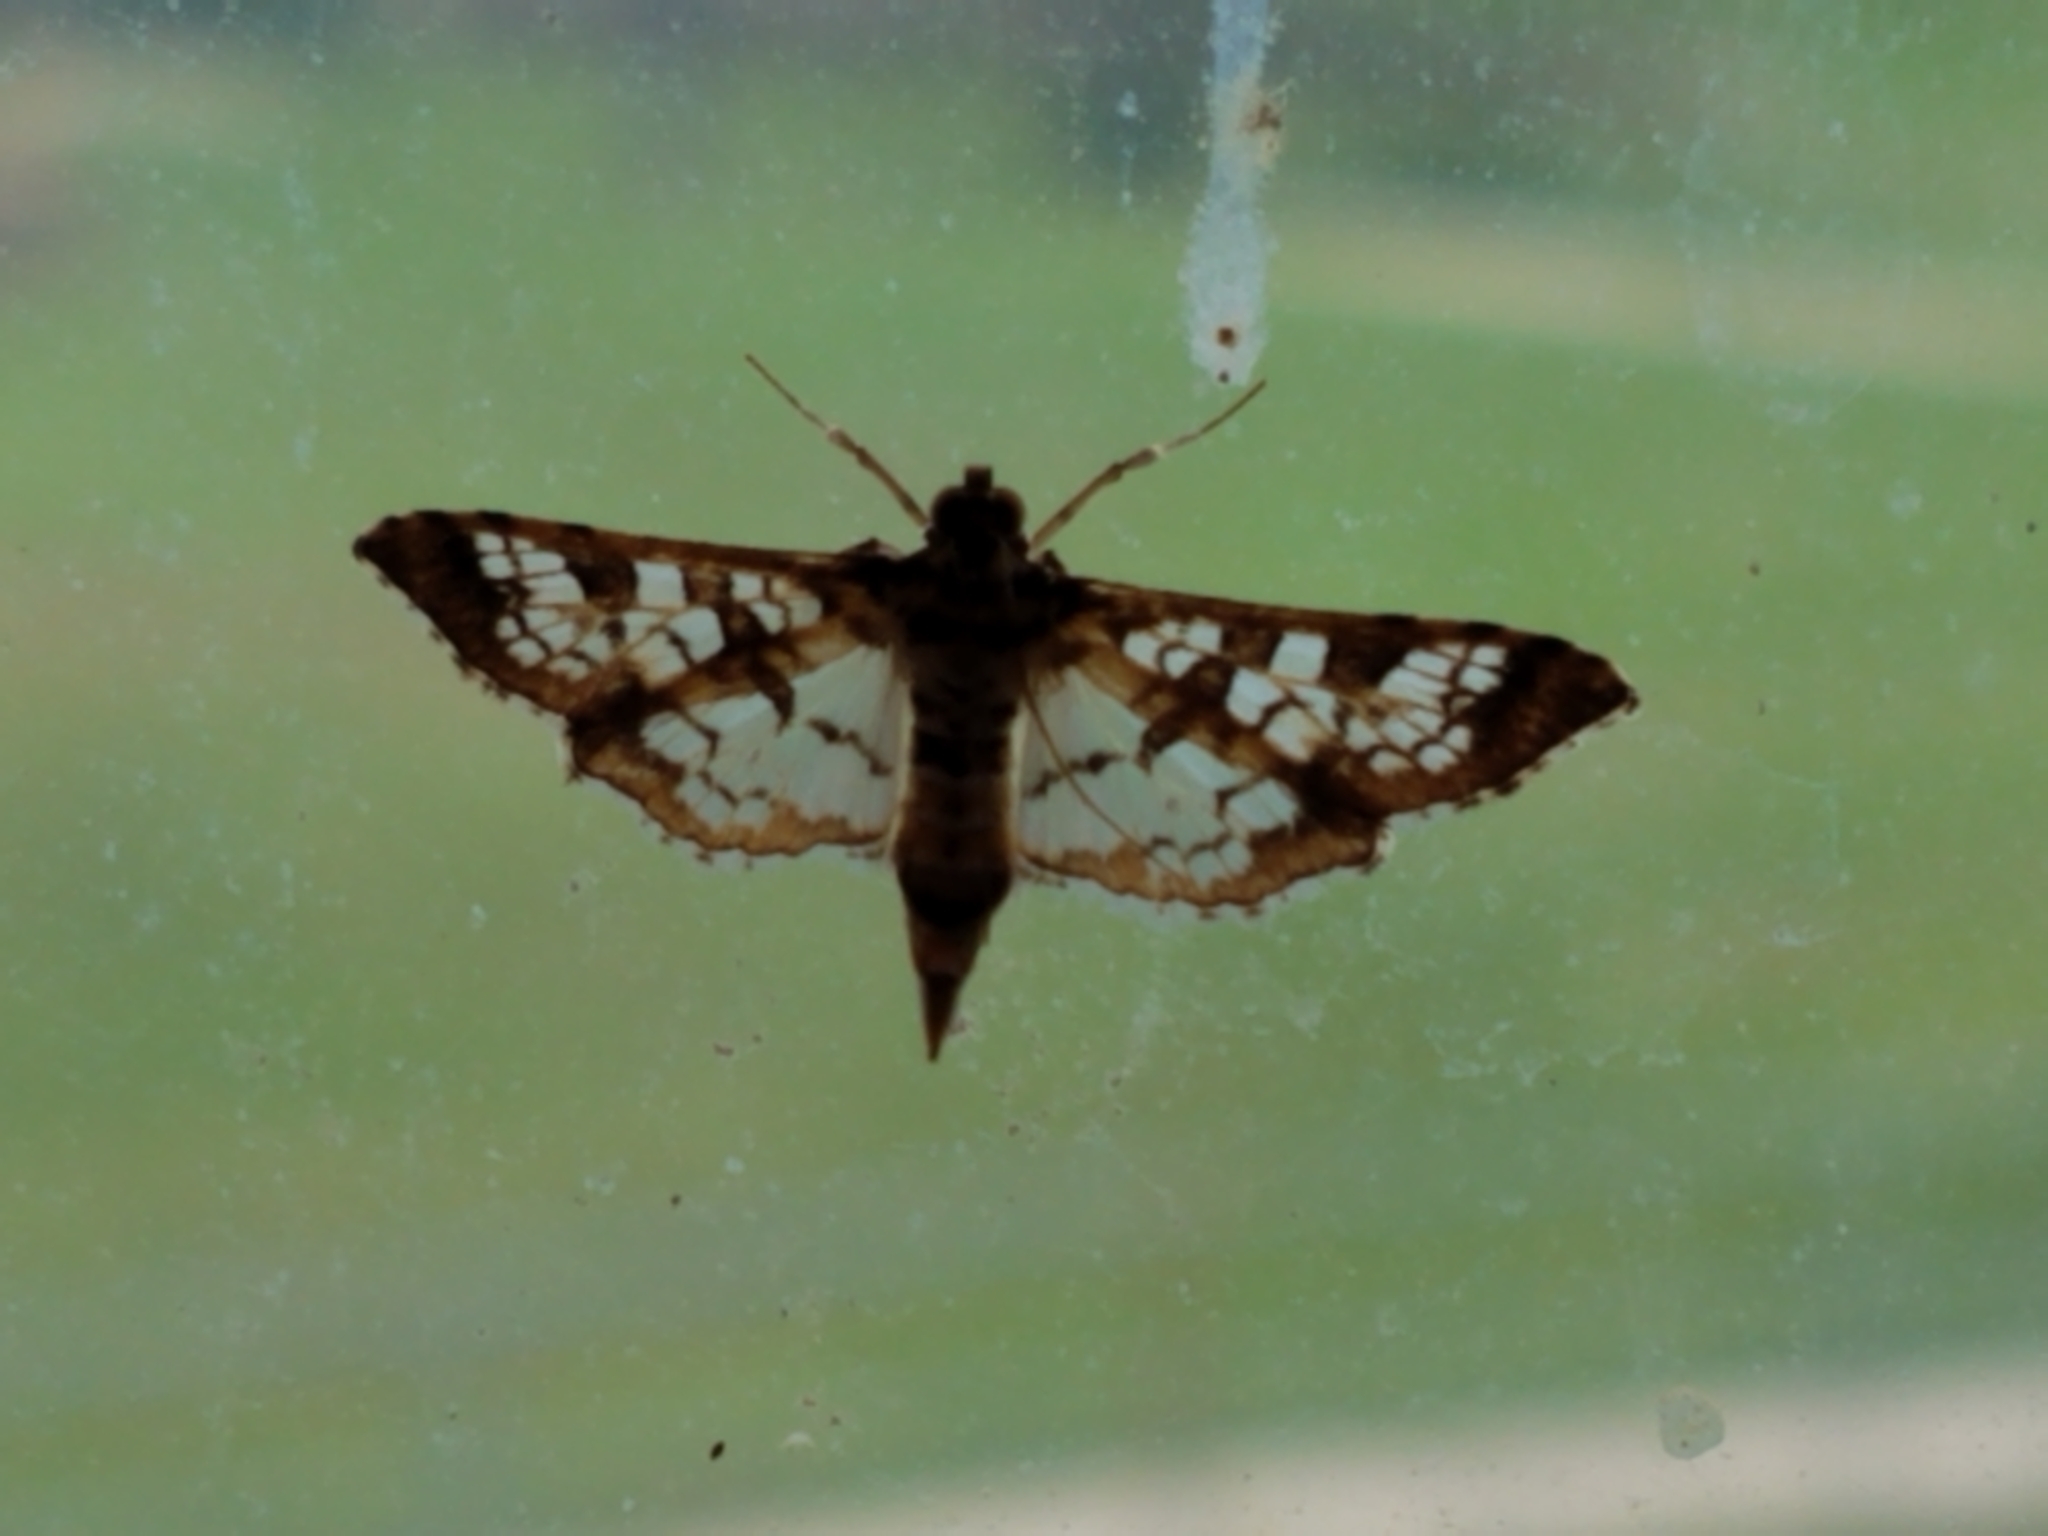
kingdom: Animalia
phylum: Arthropoda
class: Insecta
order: Lepidoptera
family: Crambidae
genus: Samea
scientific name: Samea ecclesialis
